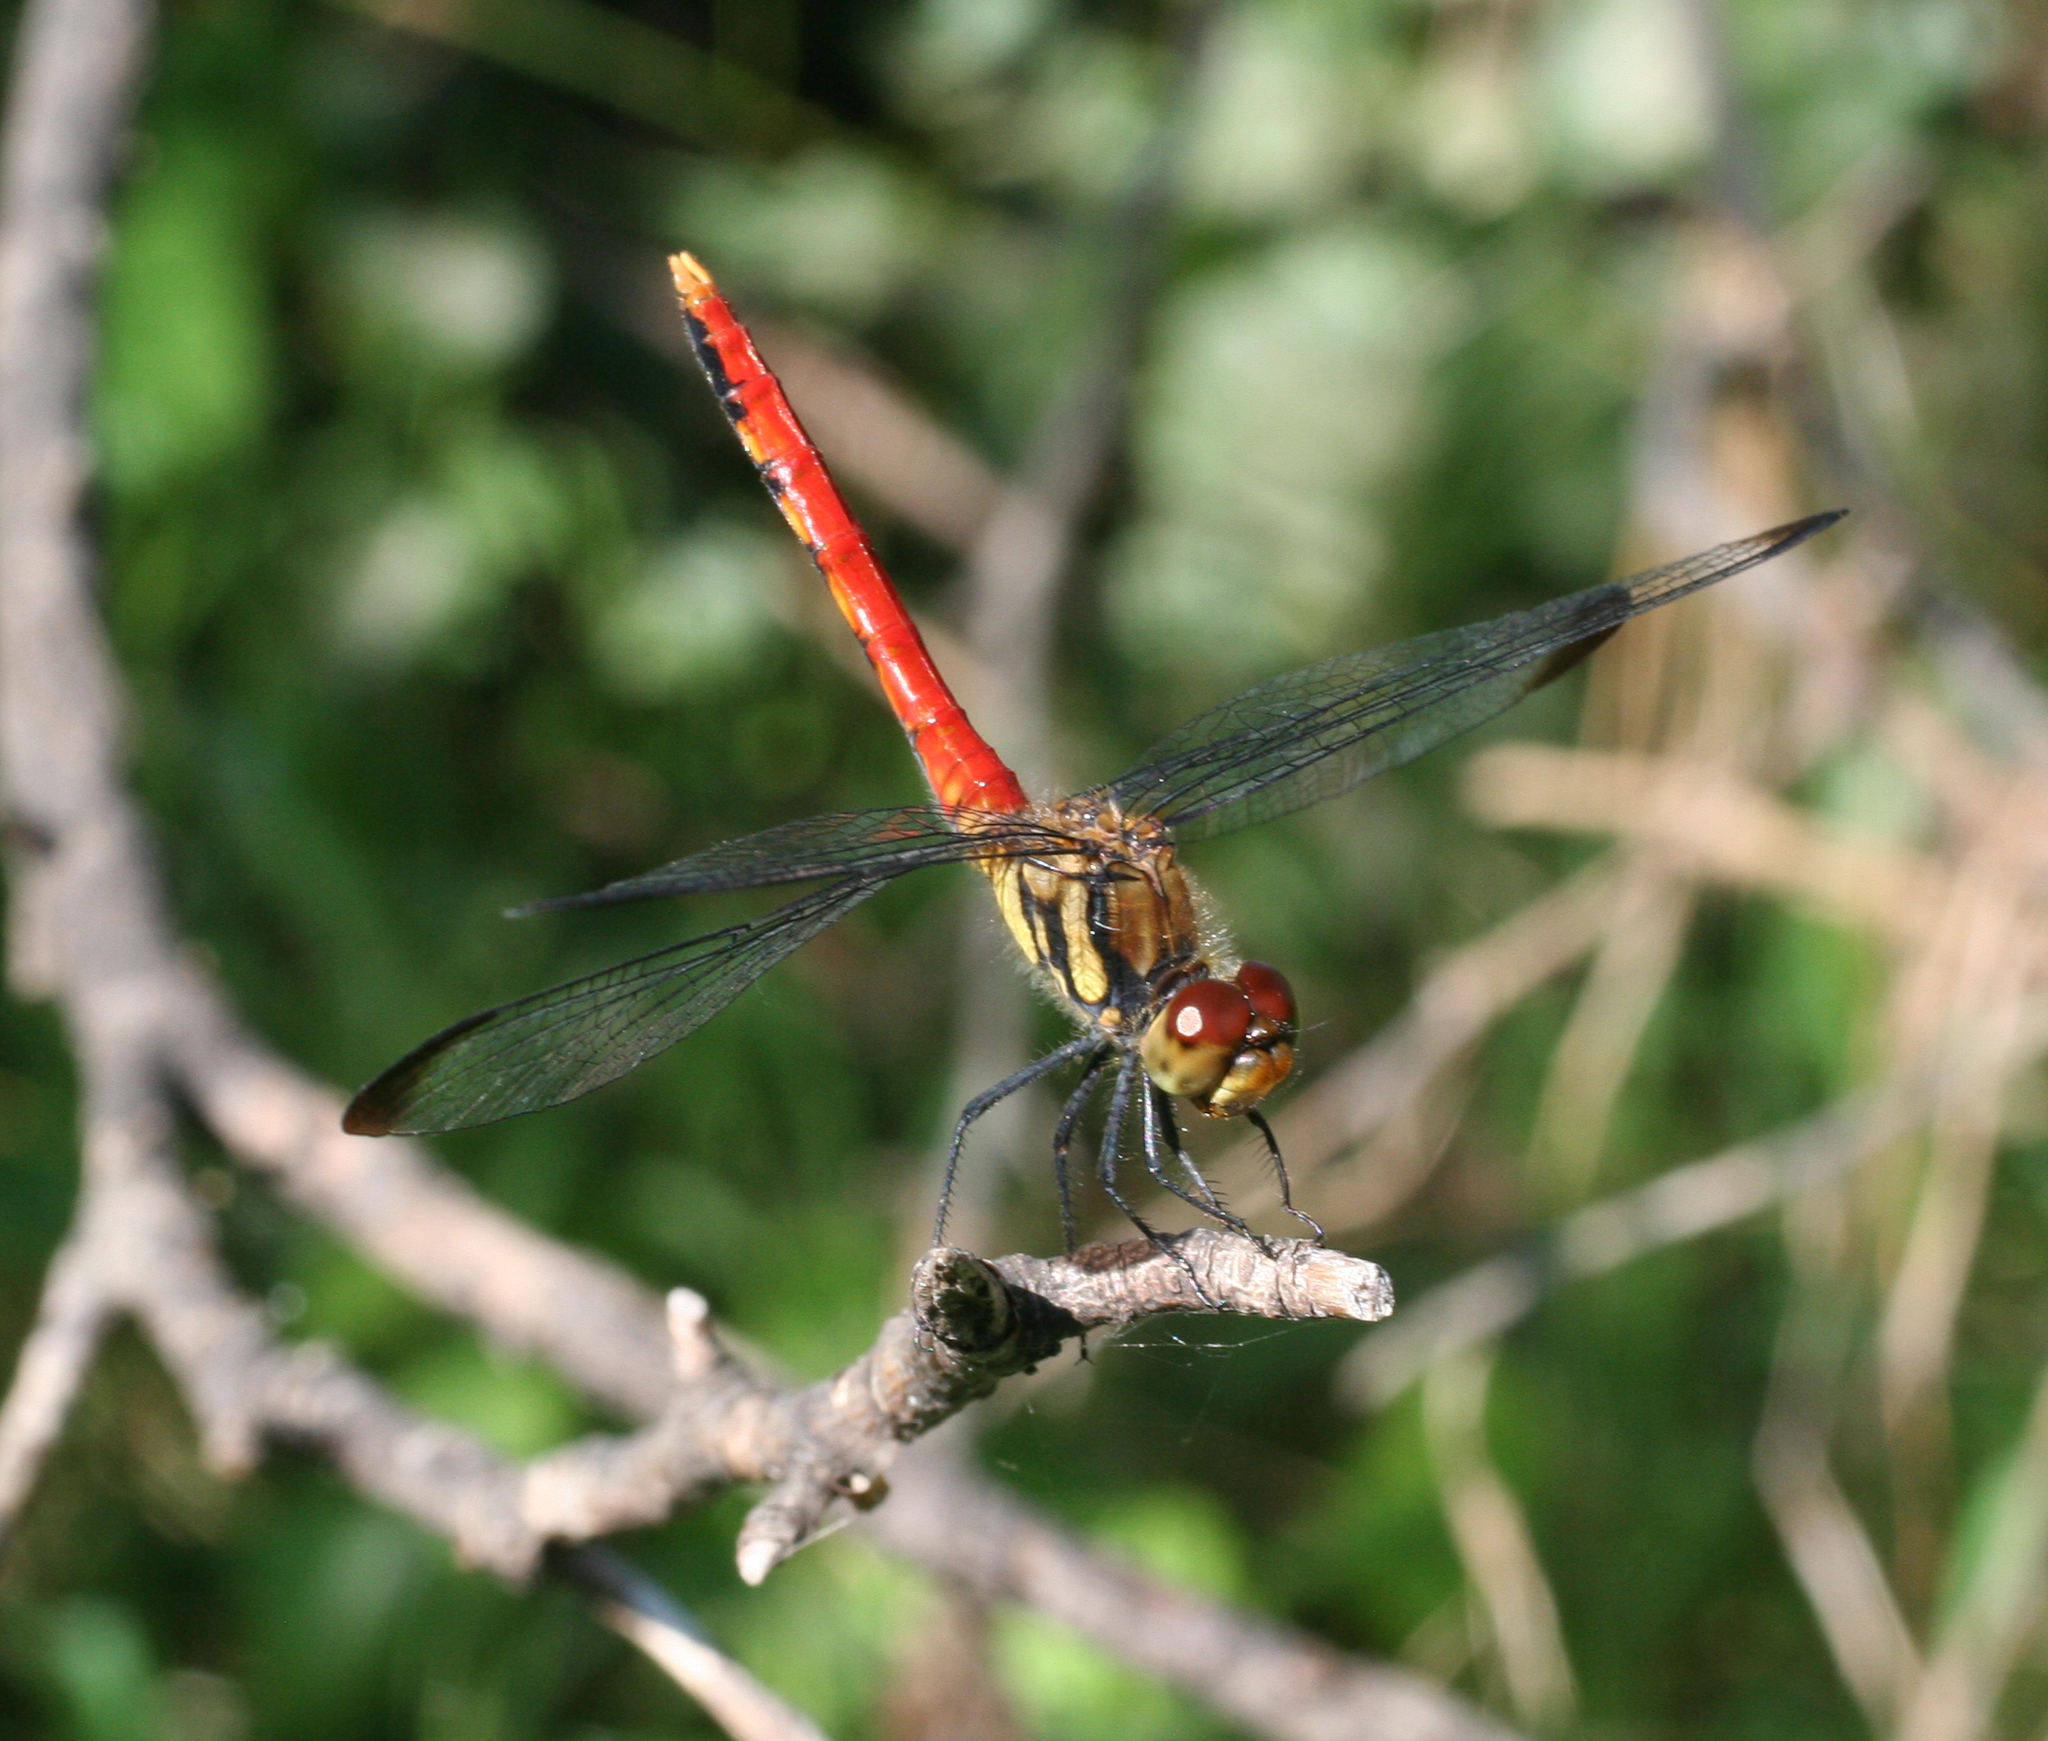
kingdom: Animalia
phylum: Arthropoda
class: Insecta
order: Odonata
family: Libellulidae
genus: Sympetrum
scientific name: Sympetrum risi
